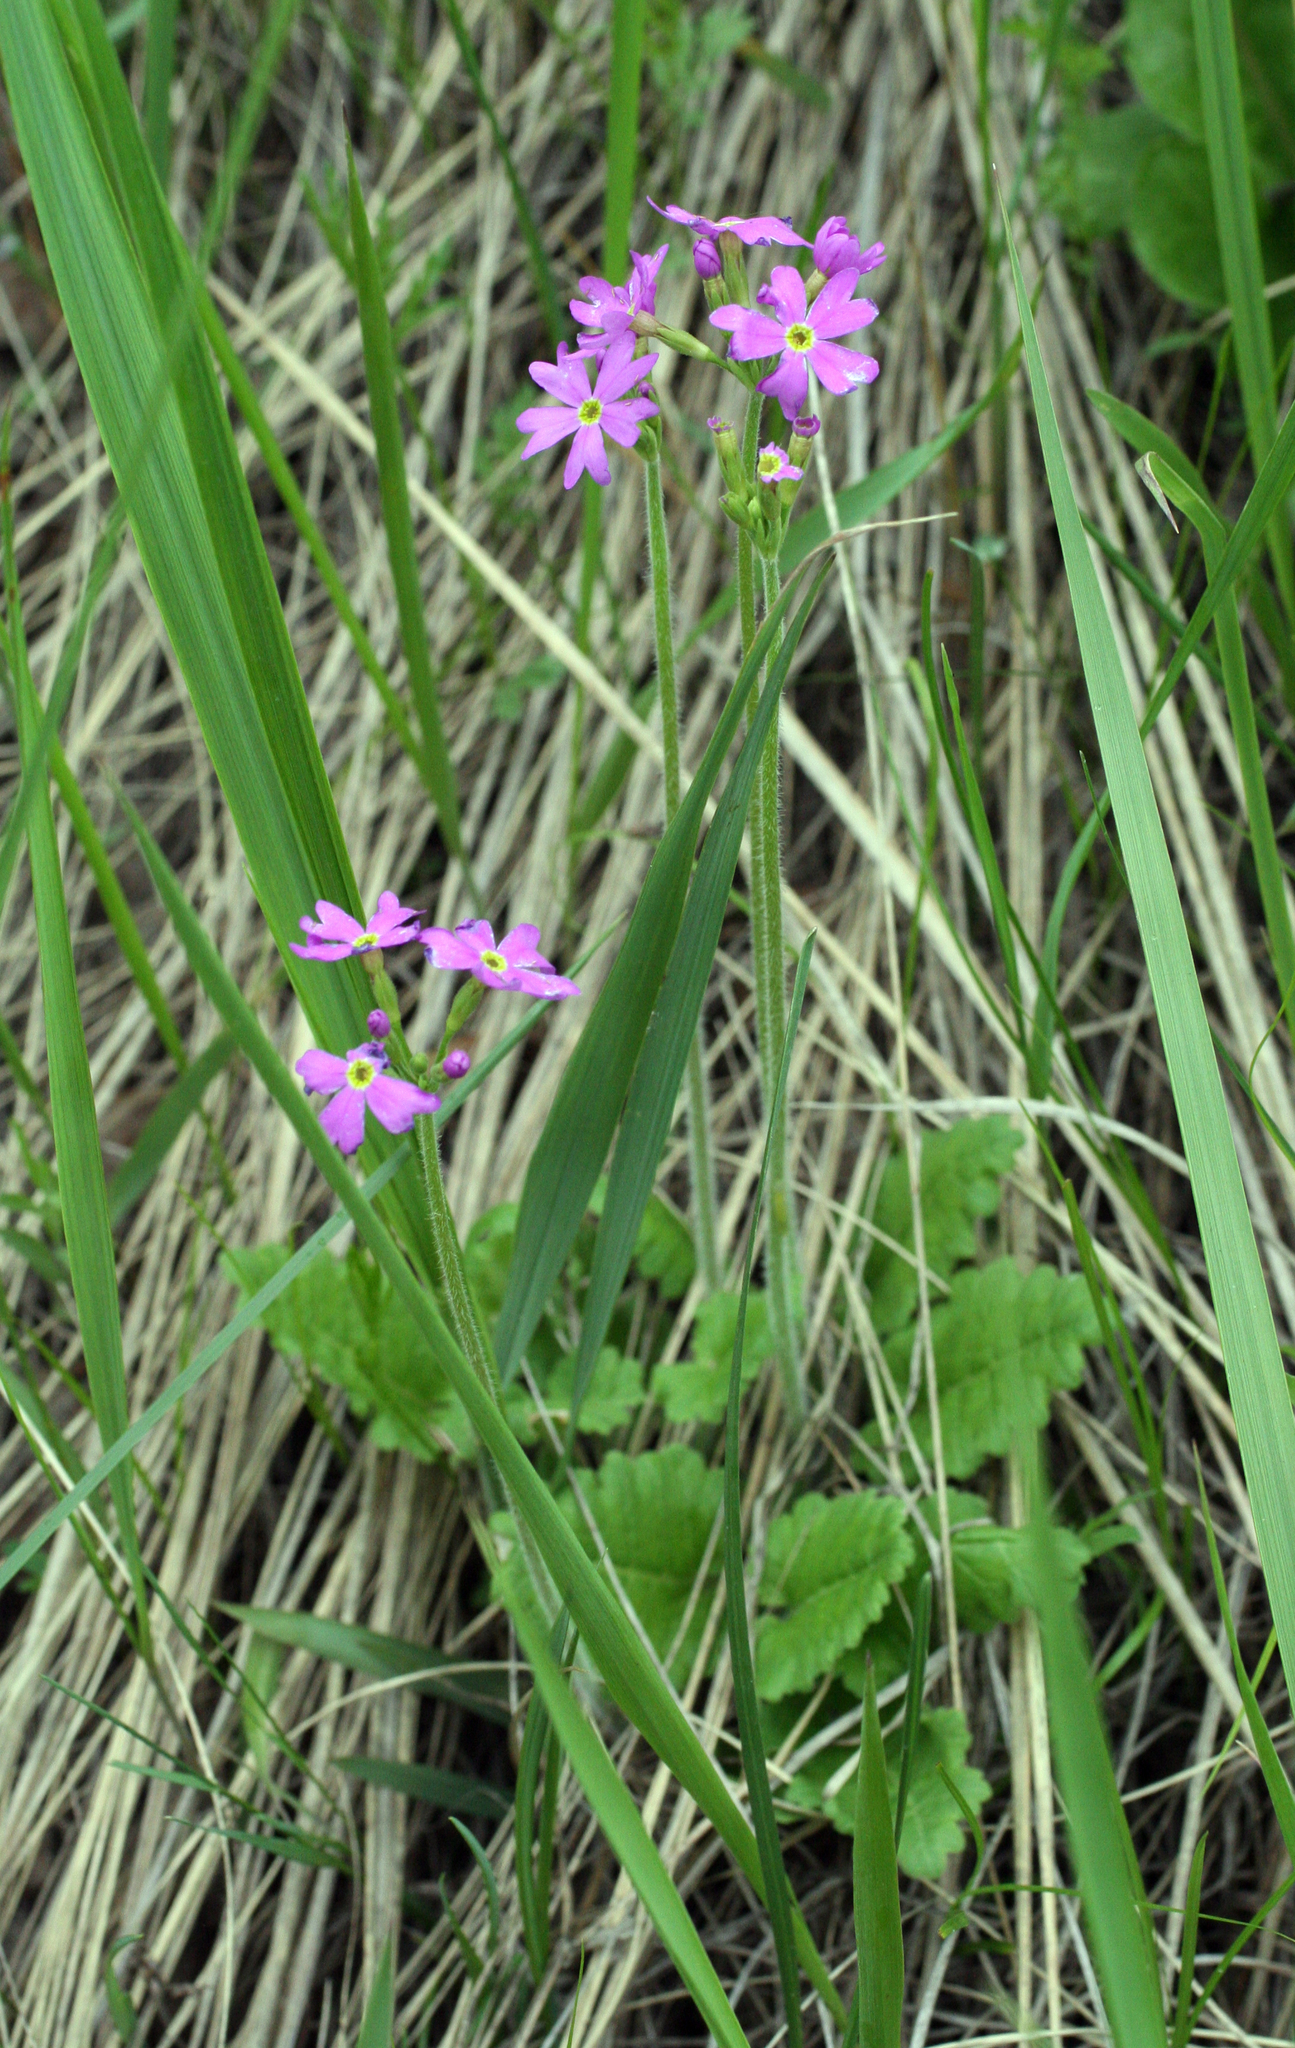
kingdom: Plantae
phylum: Tracheophyta
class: Magnoliopsida
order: Ericales
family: Primulaceae
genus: Primula
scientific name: Primula cortusoides
